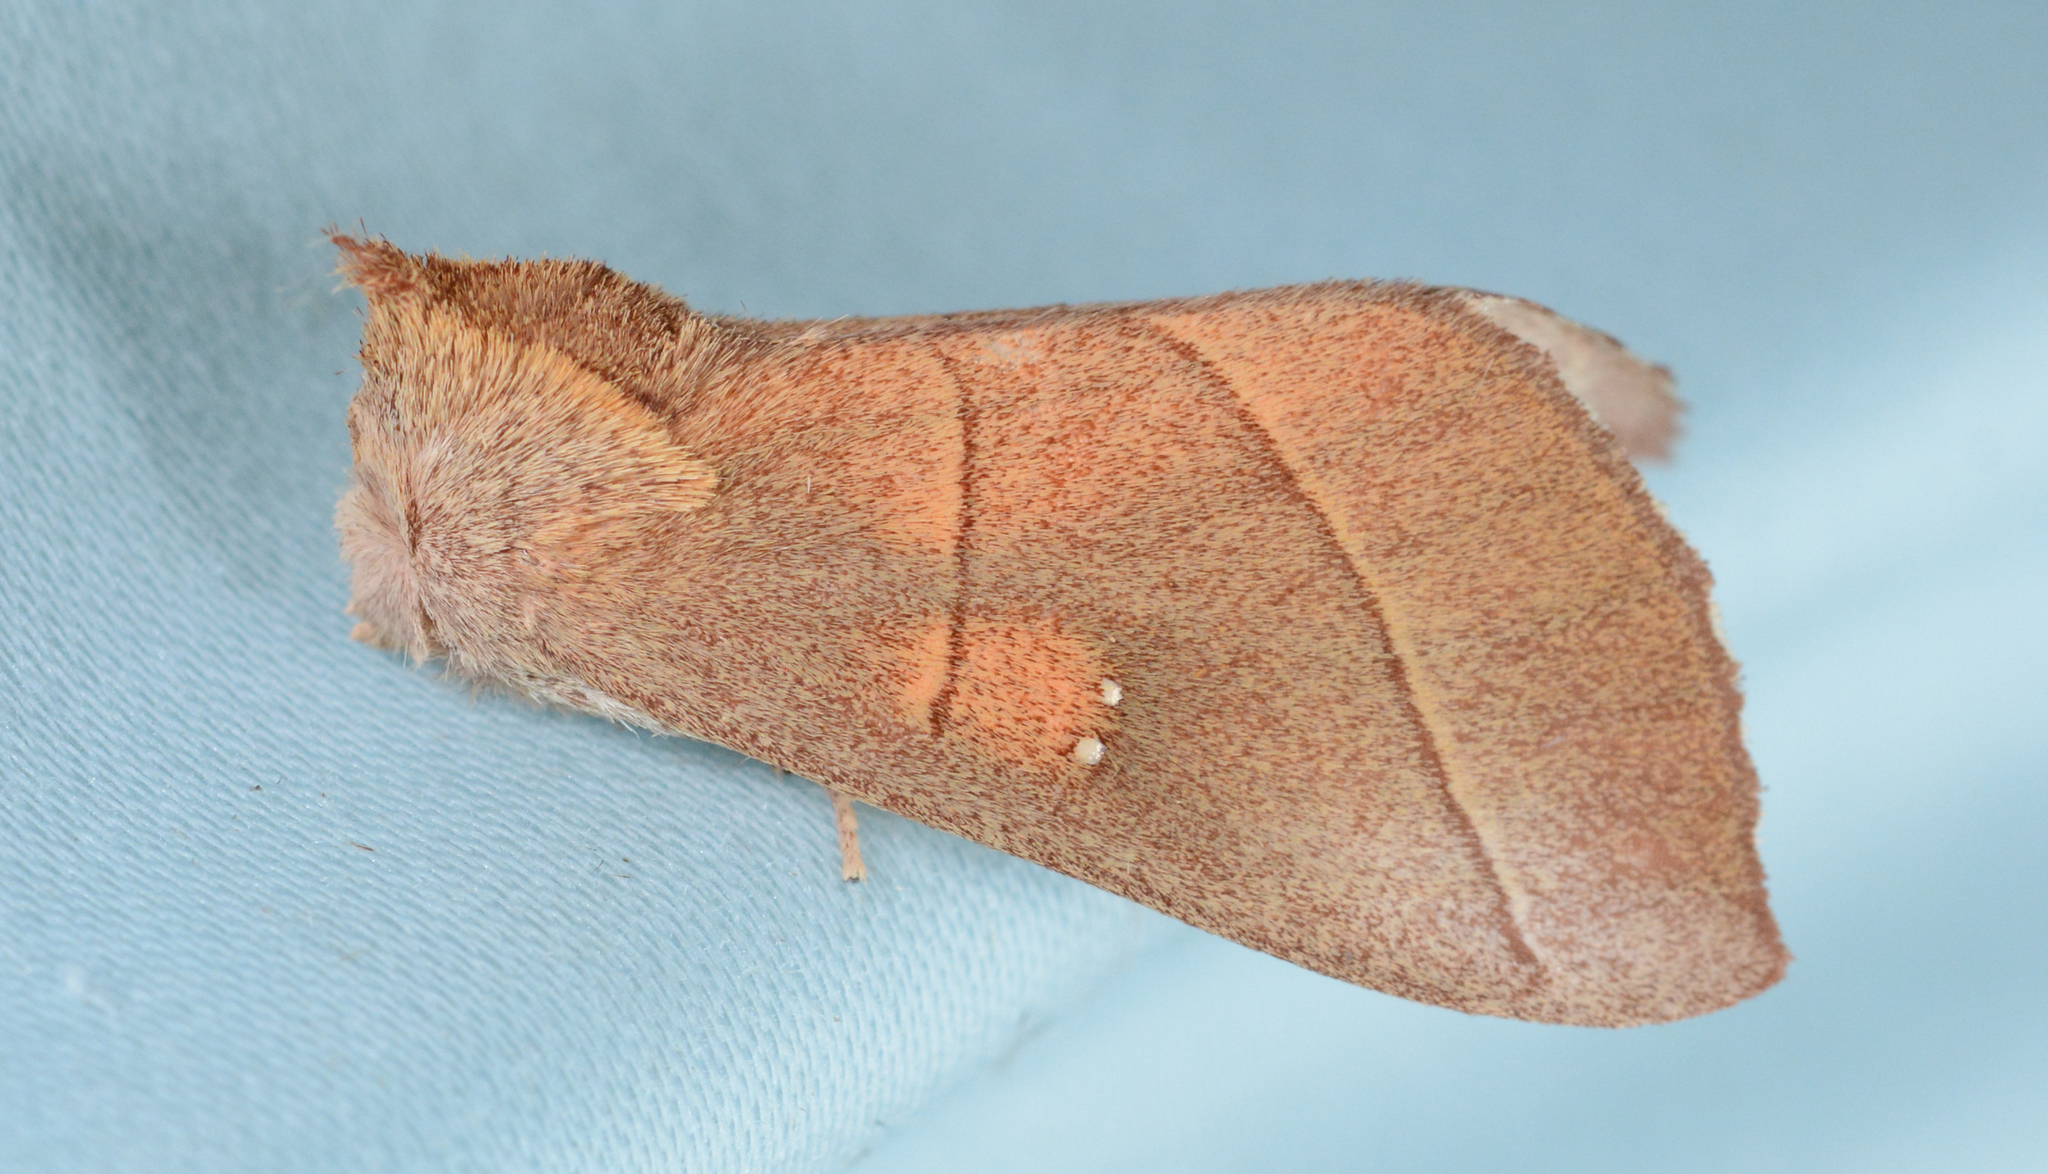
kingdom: Animalia
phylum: Arthropoda
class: Insecta
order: Lepidoptera
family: Notodontidae
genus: Nadata
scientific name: Nadata gibbosa
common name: White-dotted prominent
